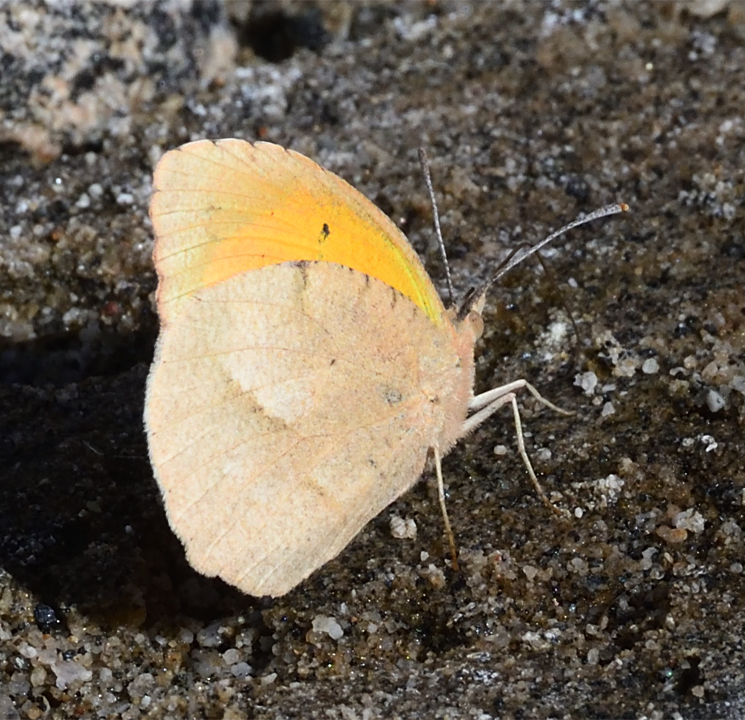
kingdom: Animalia
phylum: Arthropoda
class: Insecta
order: Lepidoptera
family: Pieridae
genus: Abaeis
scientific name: Abaeis nicippe
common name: Sleepy orange
